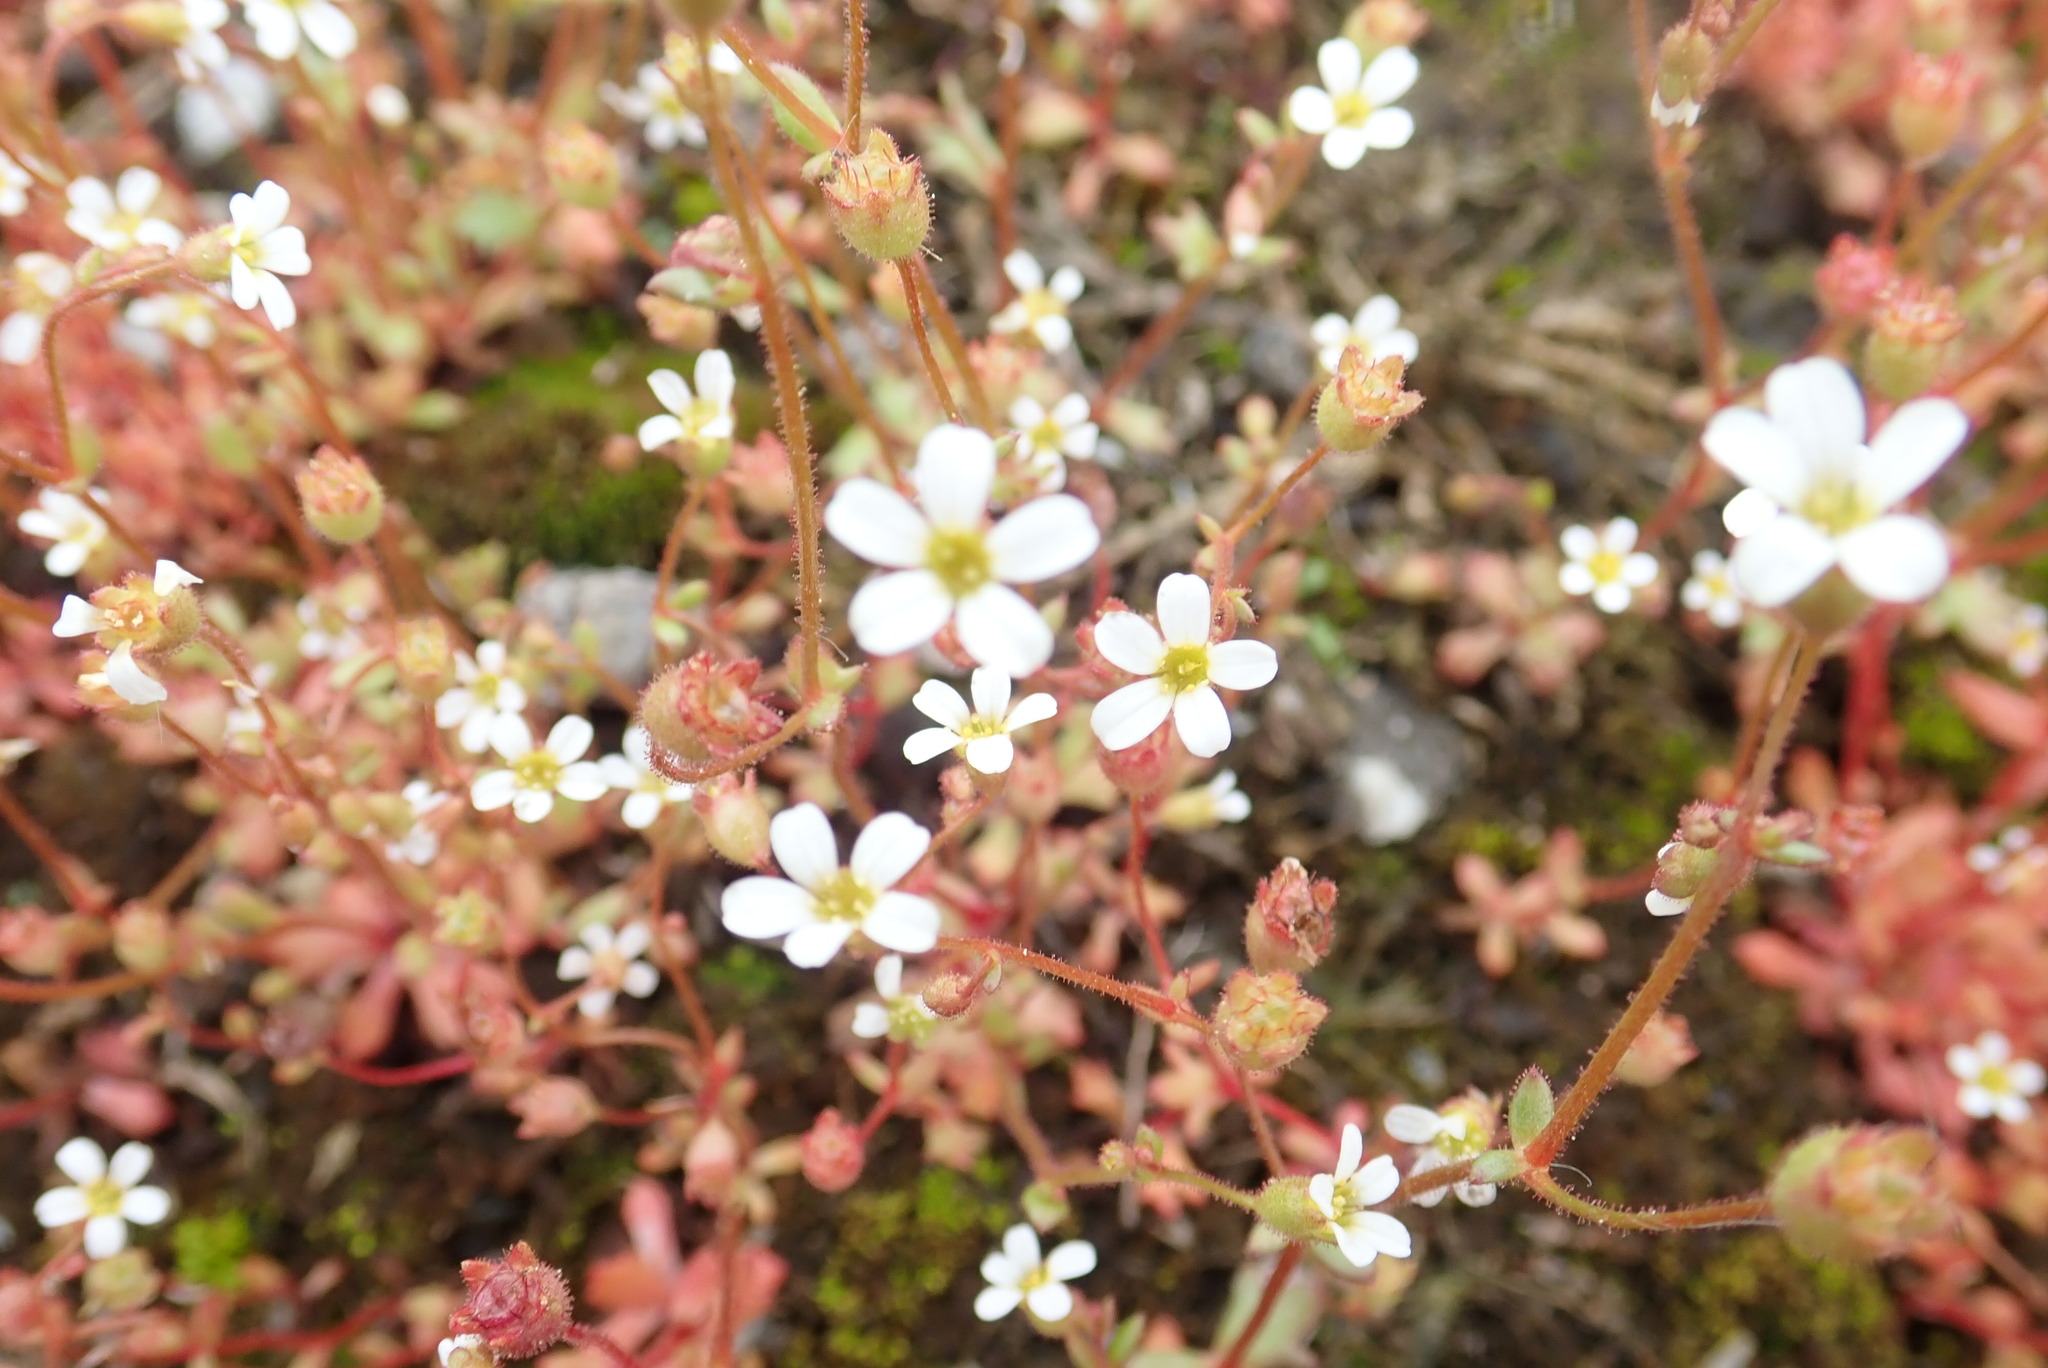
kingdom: Plantae
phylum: Tracheophyta
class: Magnoliopsida
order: Saxifragales
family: Saxifragaceae
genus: Saxifraga
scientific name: Saxifraga tridactylites
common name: Rue-leaved saxifrage
